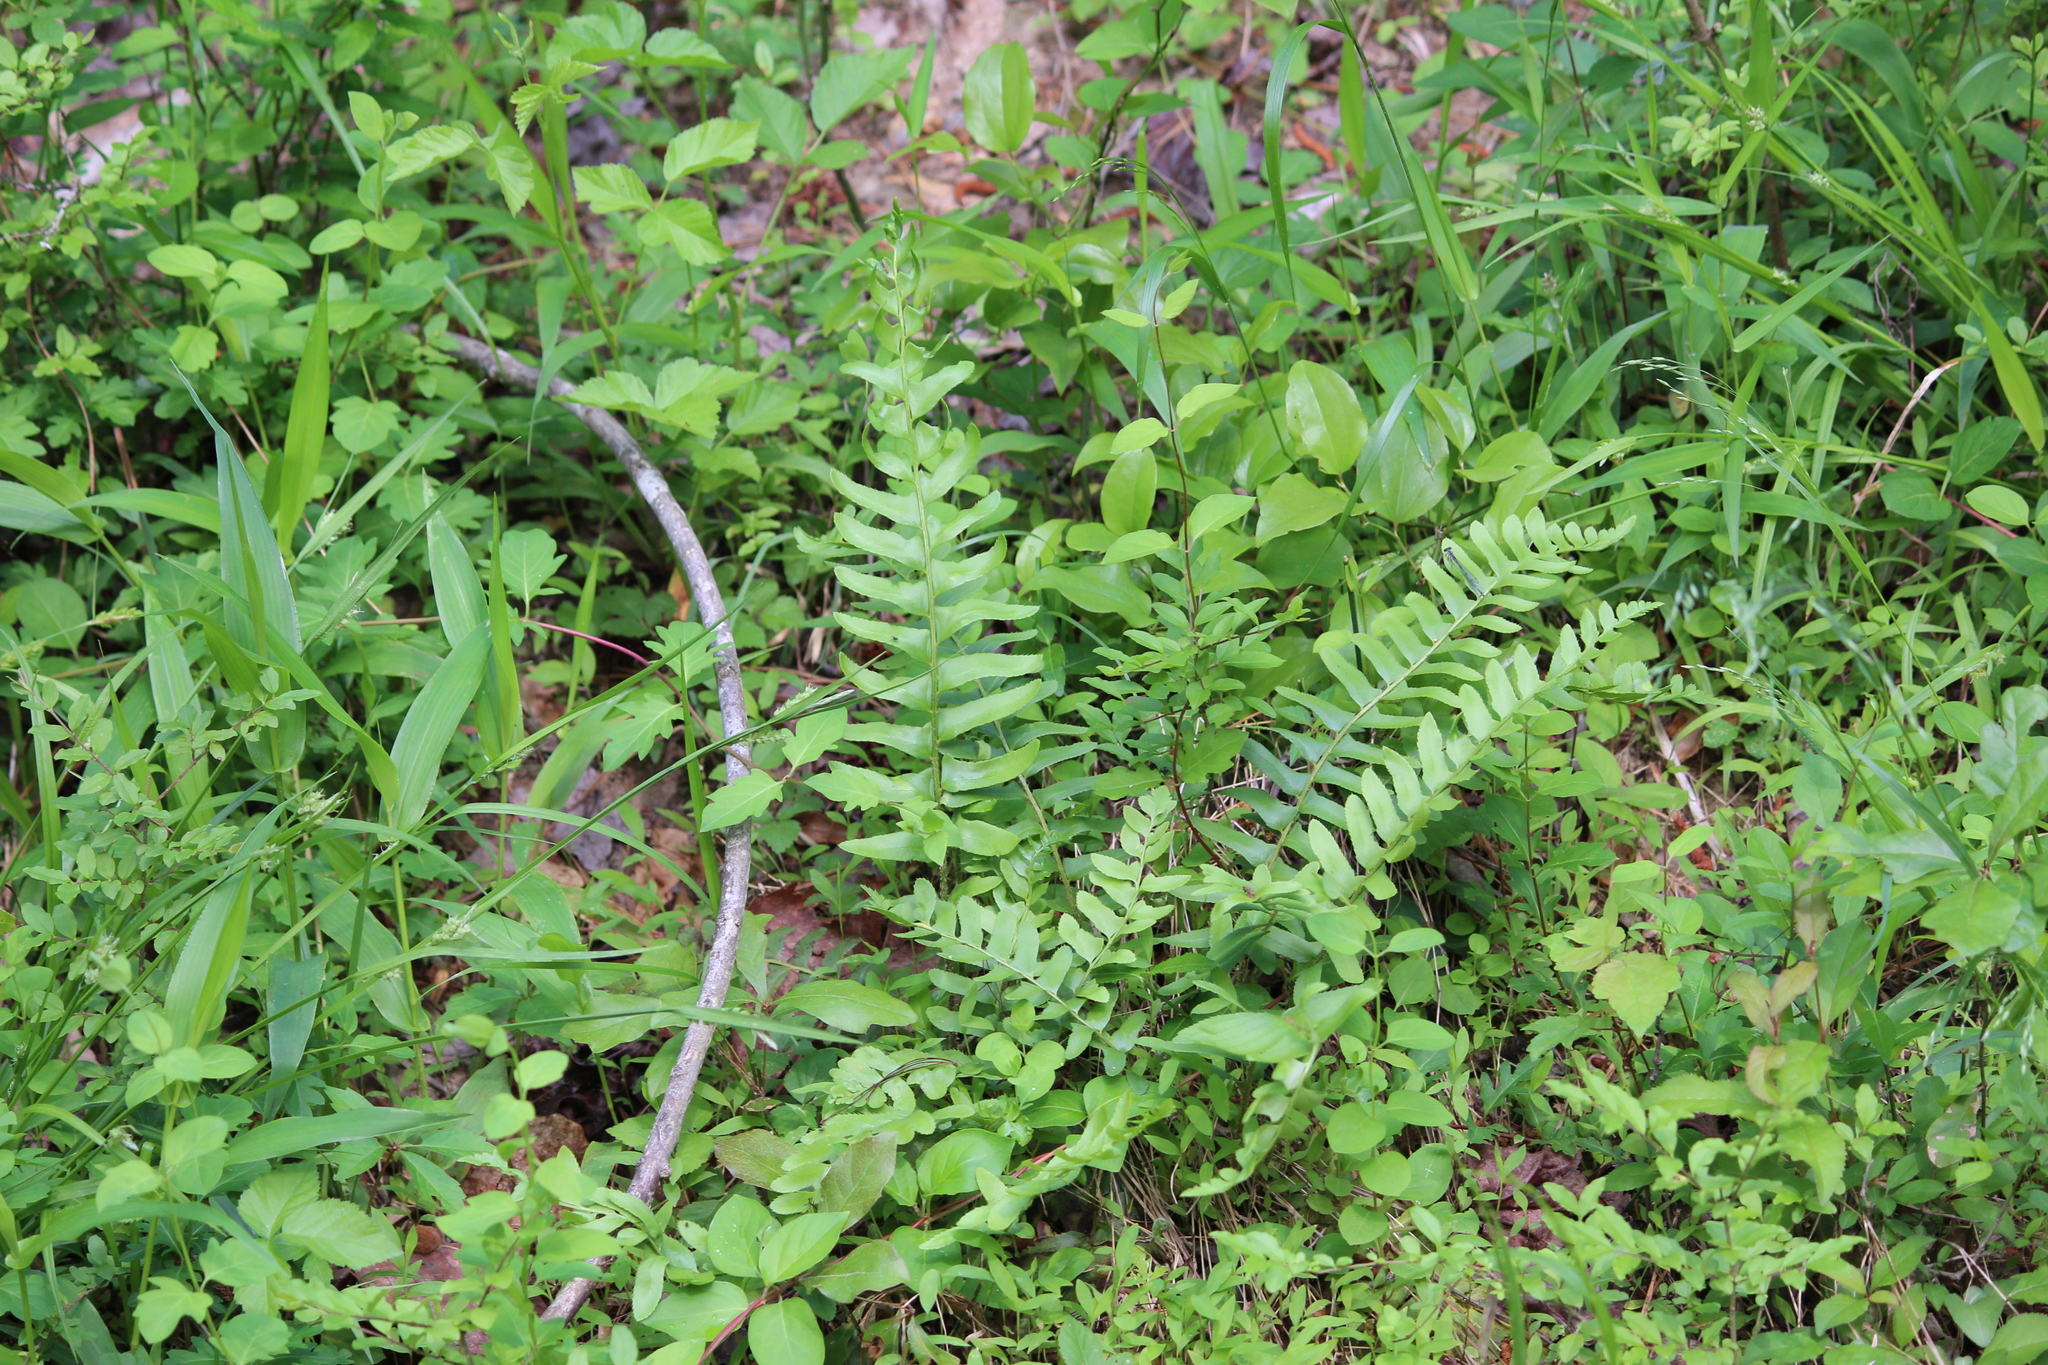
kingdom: Plantae
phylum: Tracheophyta
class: Polypodiopsida
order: Polypodiales
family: Dryopteridaceae
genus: Polystichum
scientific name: Polystichum acrostichoides
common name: Christmas fern
